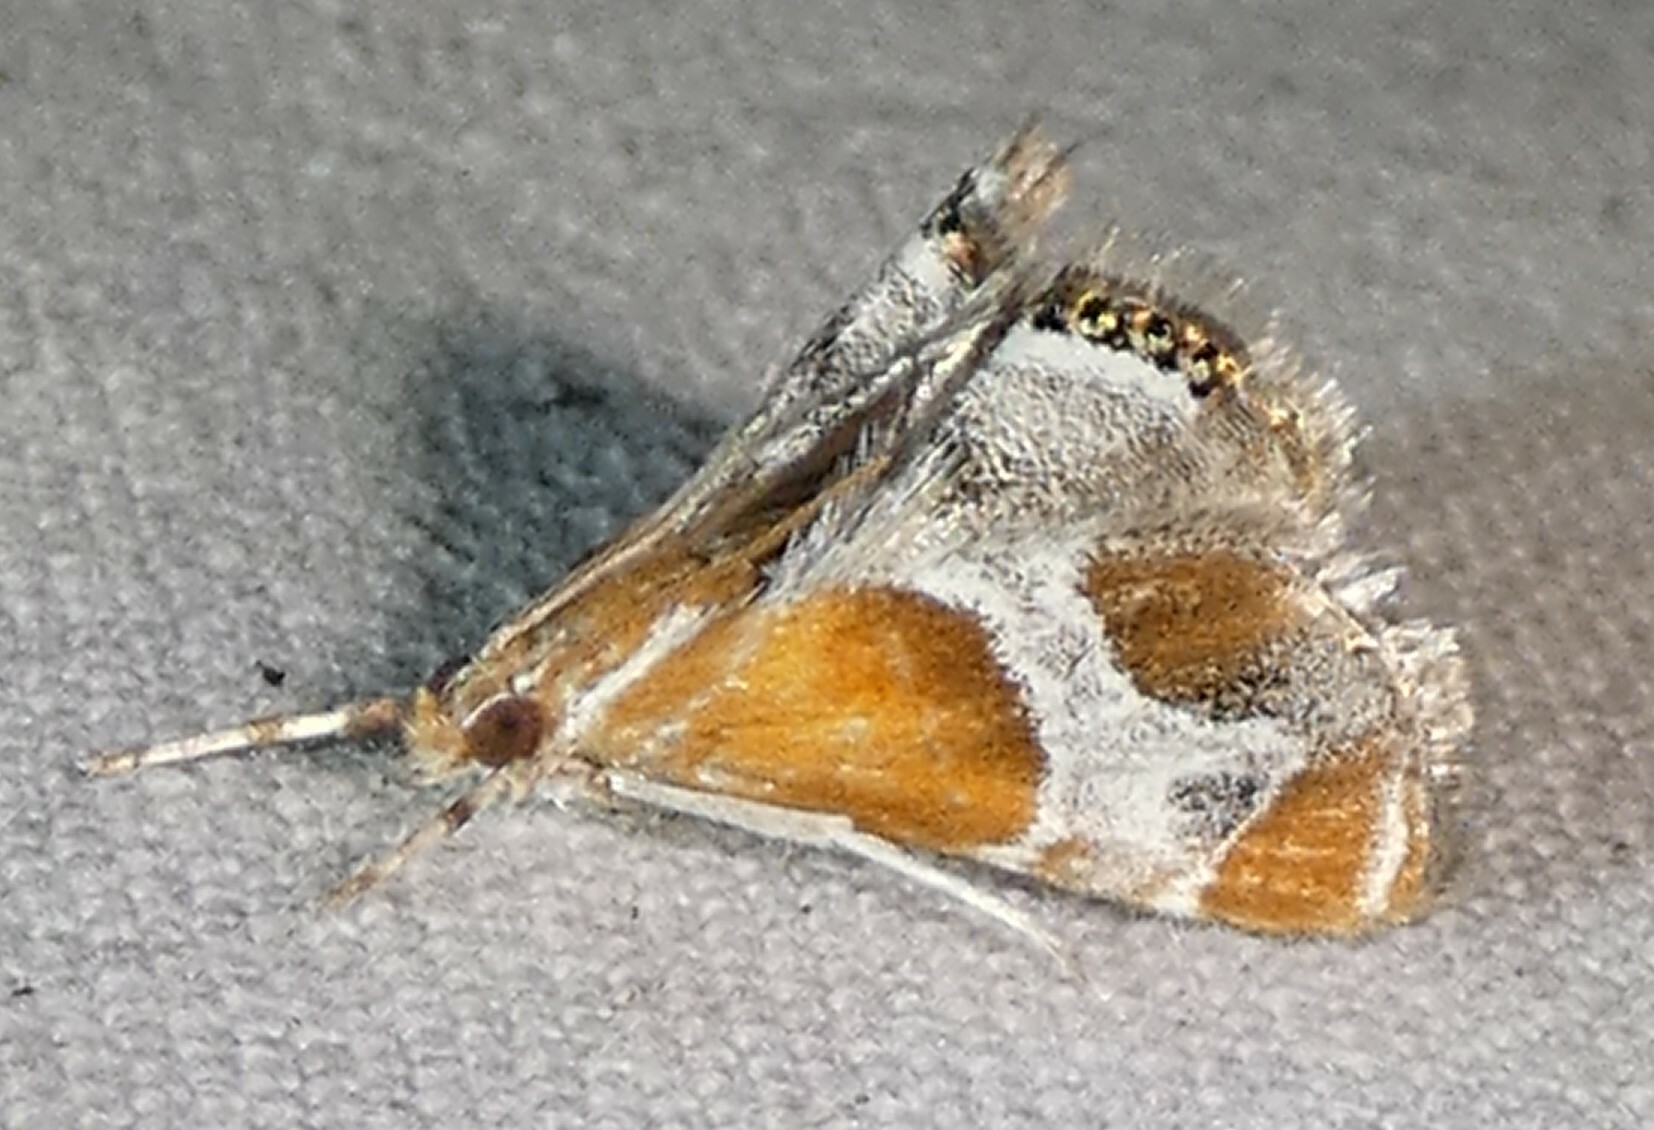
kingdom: Animalia
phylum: Arthropoda
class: Insecta
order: Lepidoptera
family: Crambidae
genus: Chalcoela
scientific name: Chalcoela pegasalis
